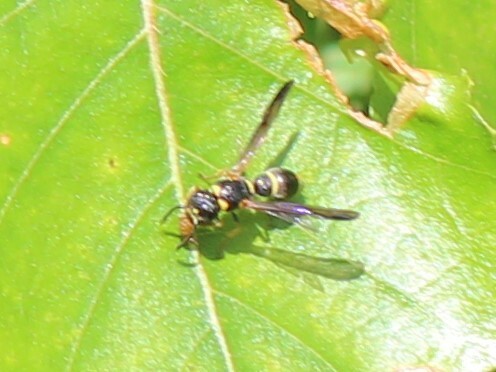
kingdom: Animalia
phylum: Arthropoda
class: Insecta
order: Hymenoptera
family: Eumenidae
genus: Parancistrocerus
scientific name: Parancistrocerus perennis
